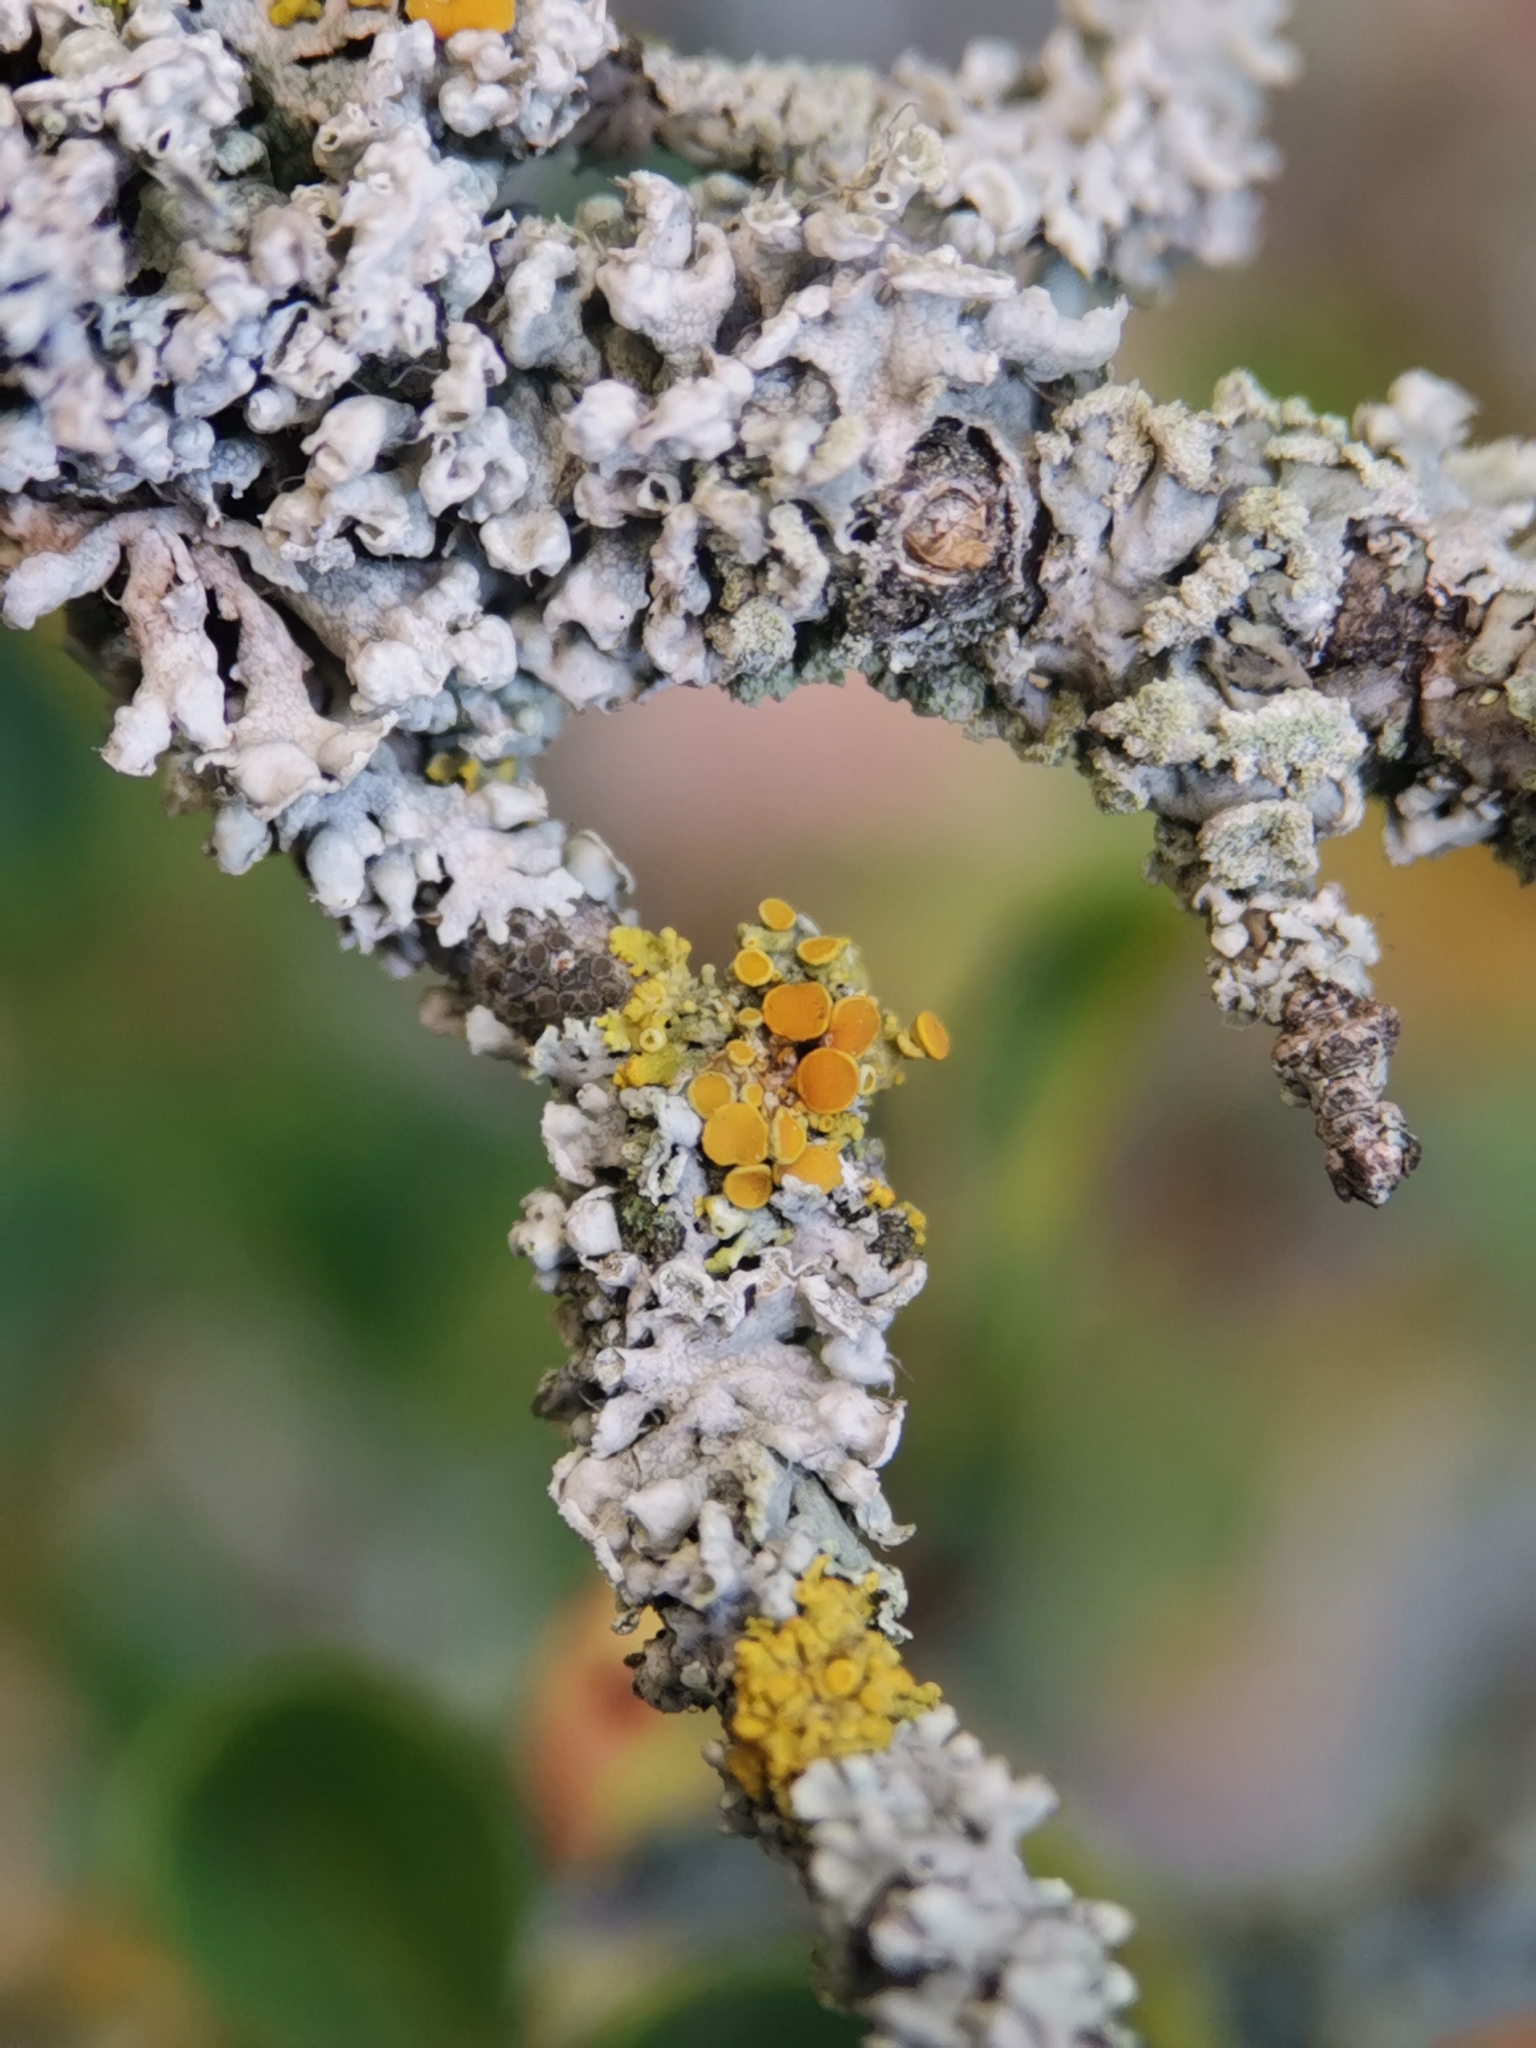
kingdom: Fungi
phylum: Ascomycota
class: Lecanoromycetes
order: Teloschistales
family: Teloschistaceae
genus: Polycauliona
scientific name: Polycauliona polycarpa
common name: Pin-cushion sunburst lichen
